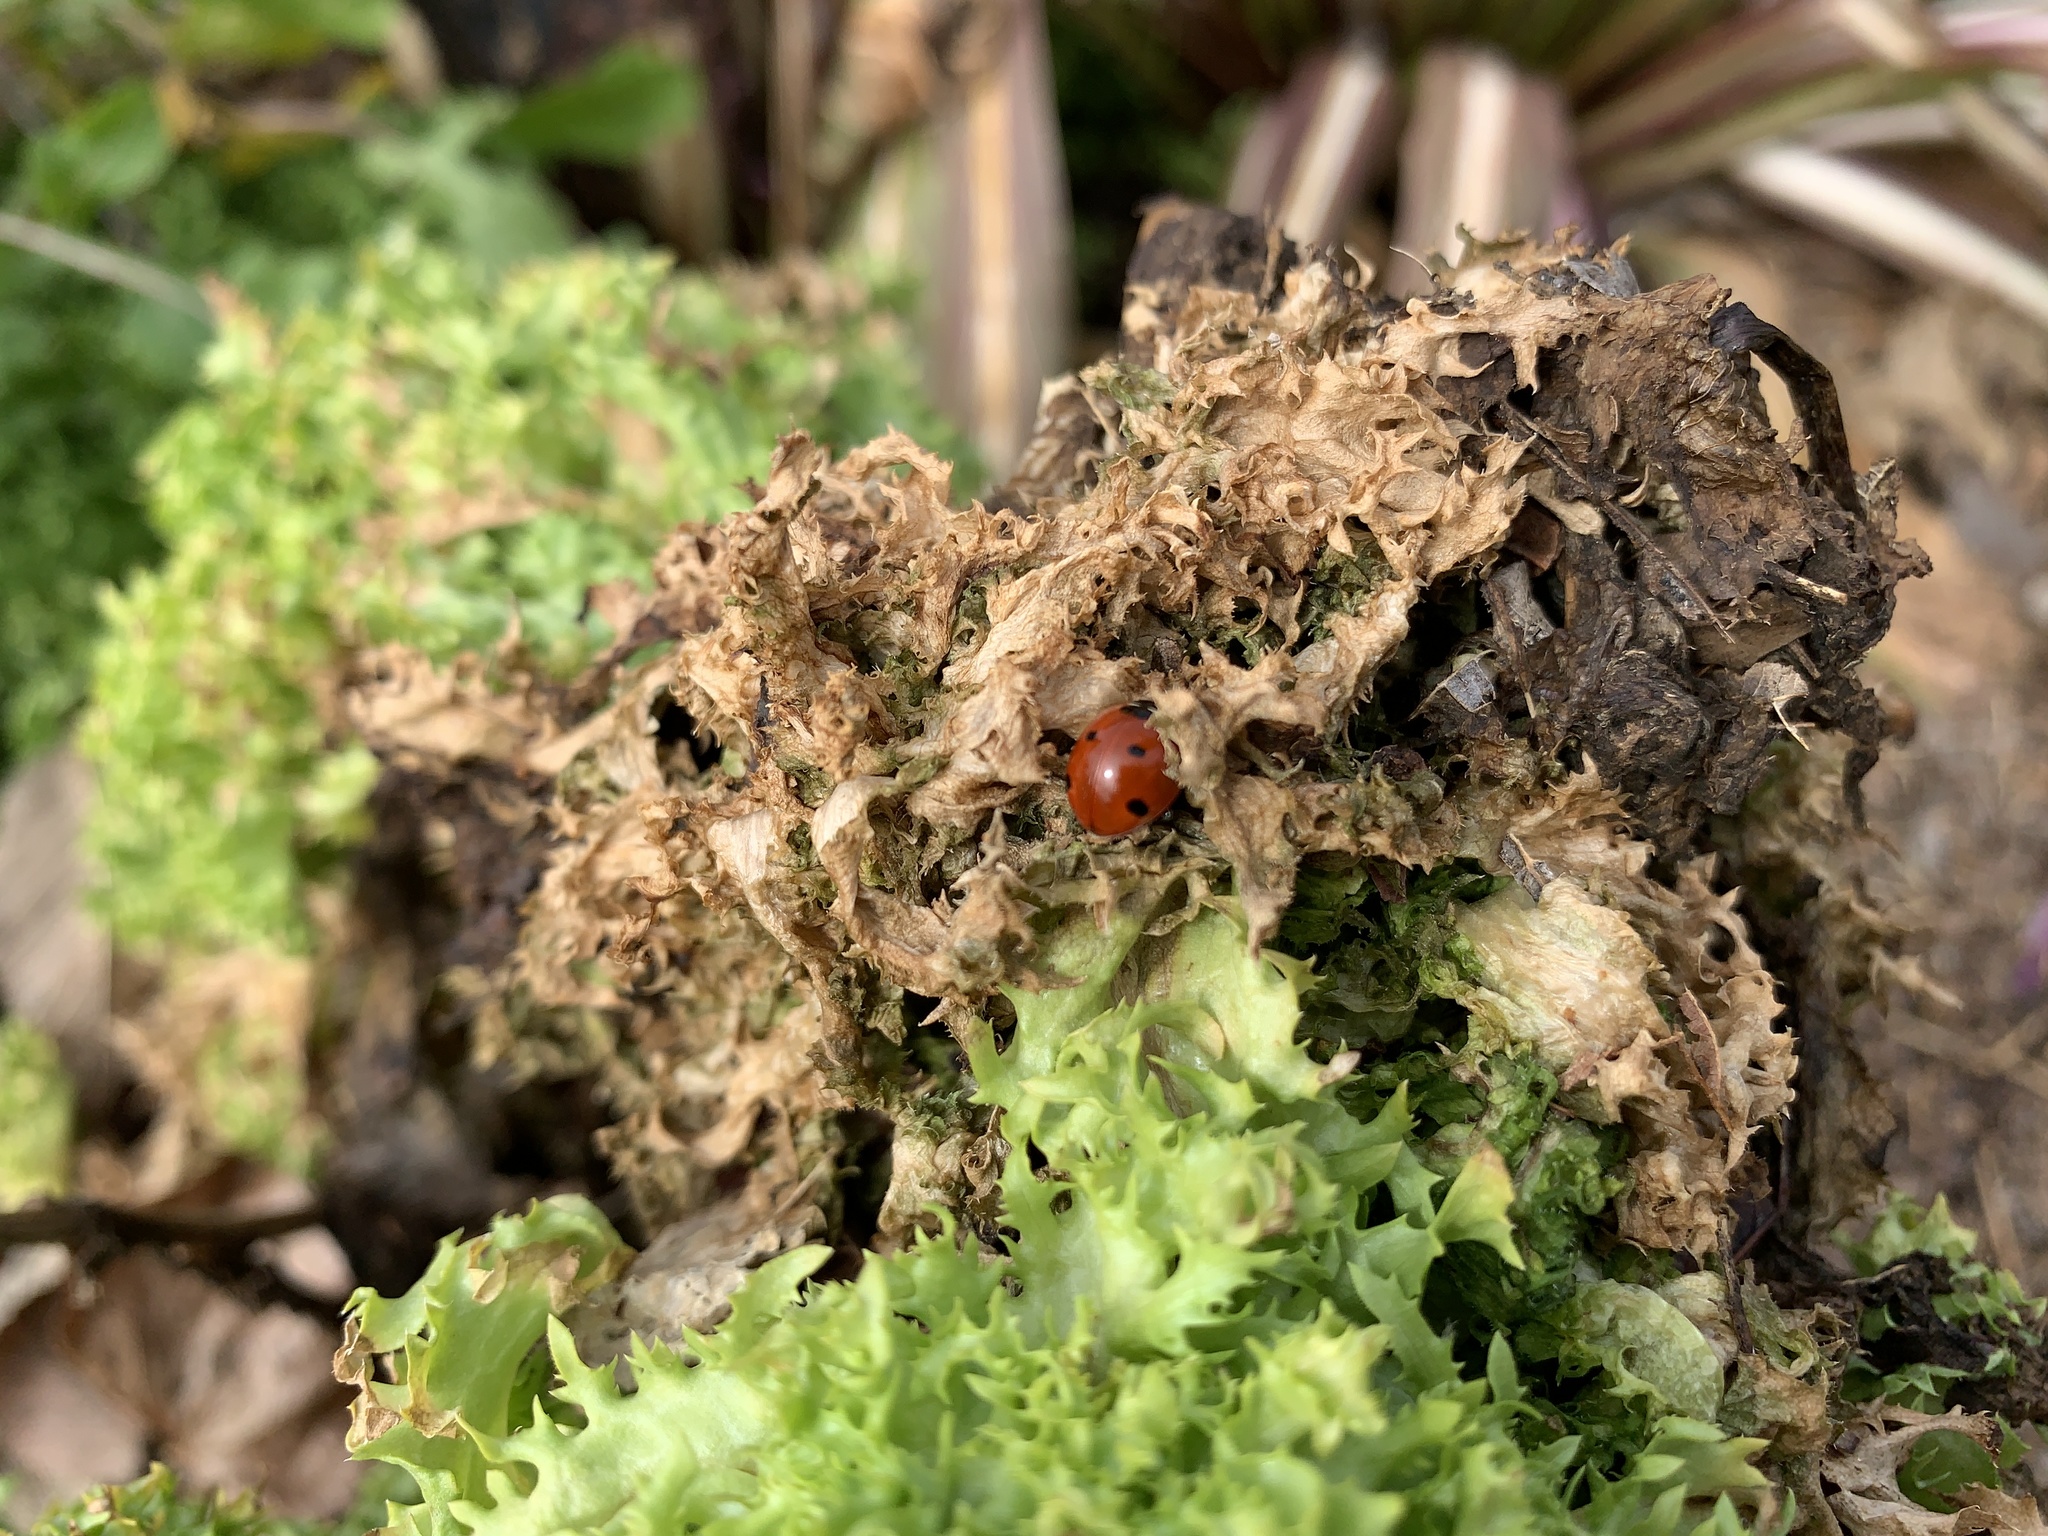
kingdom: Animalia
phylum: Arthropoda
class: Insecta
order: Coleoptera
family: Coccinellidae
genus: Coccinella
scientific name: Coccinella septempunctata
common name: Sevenspotted lady beetle
